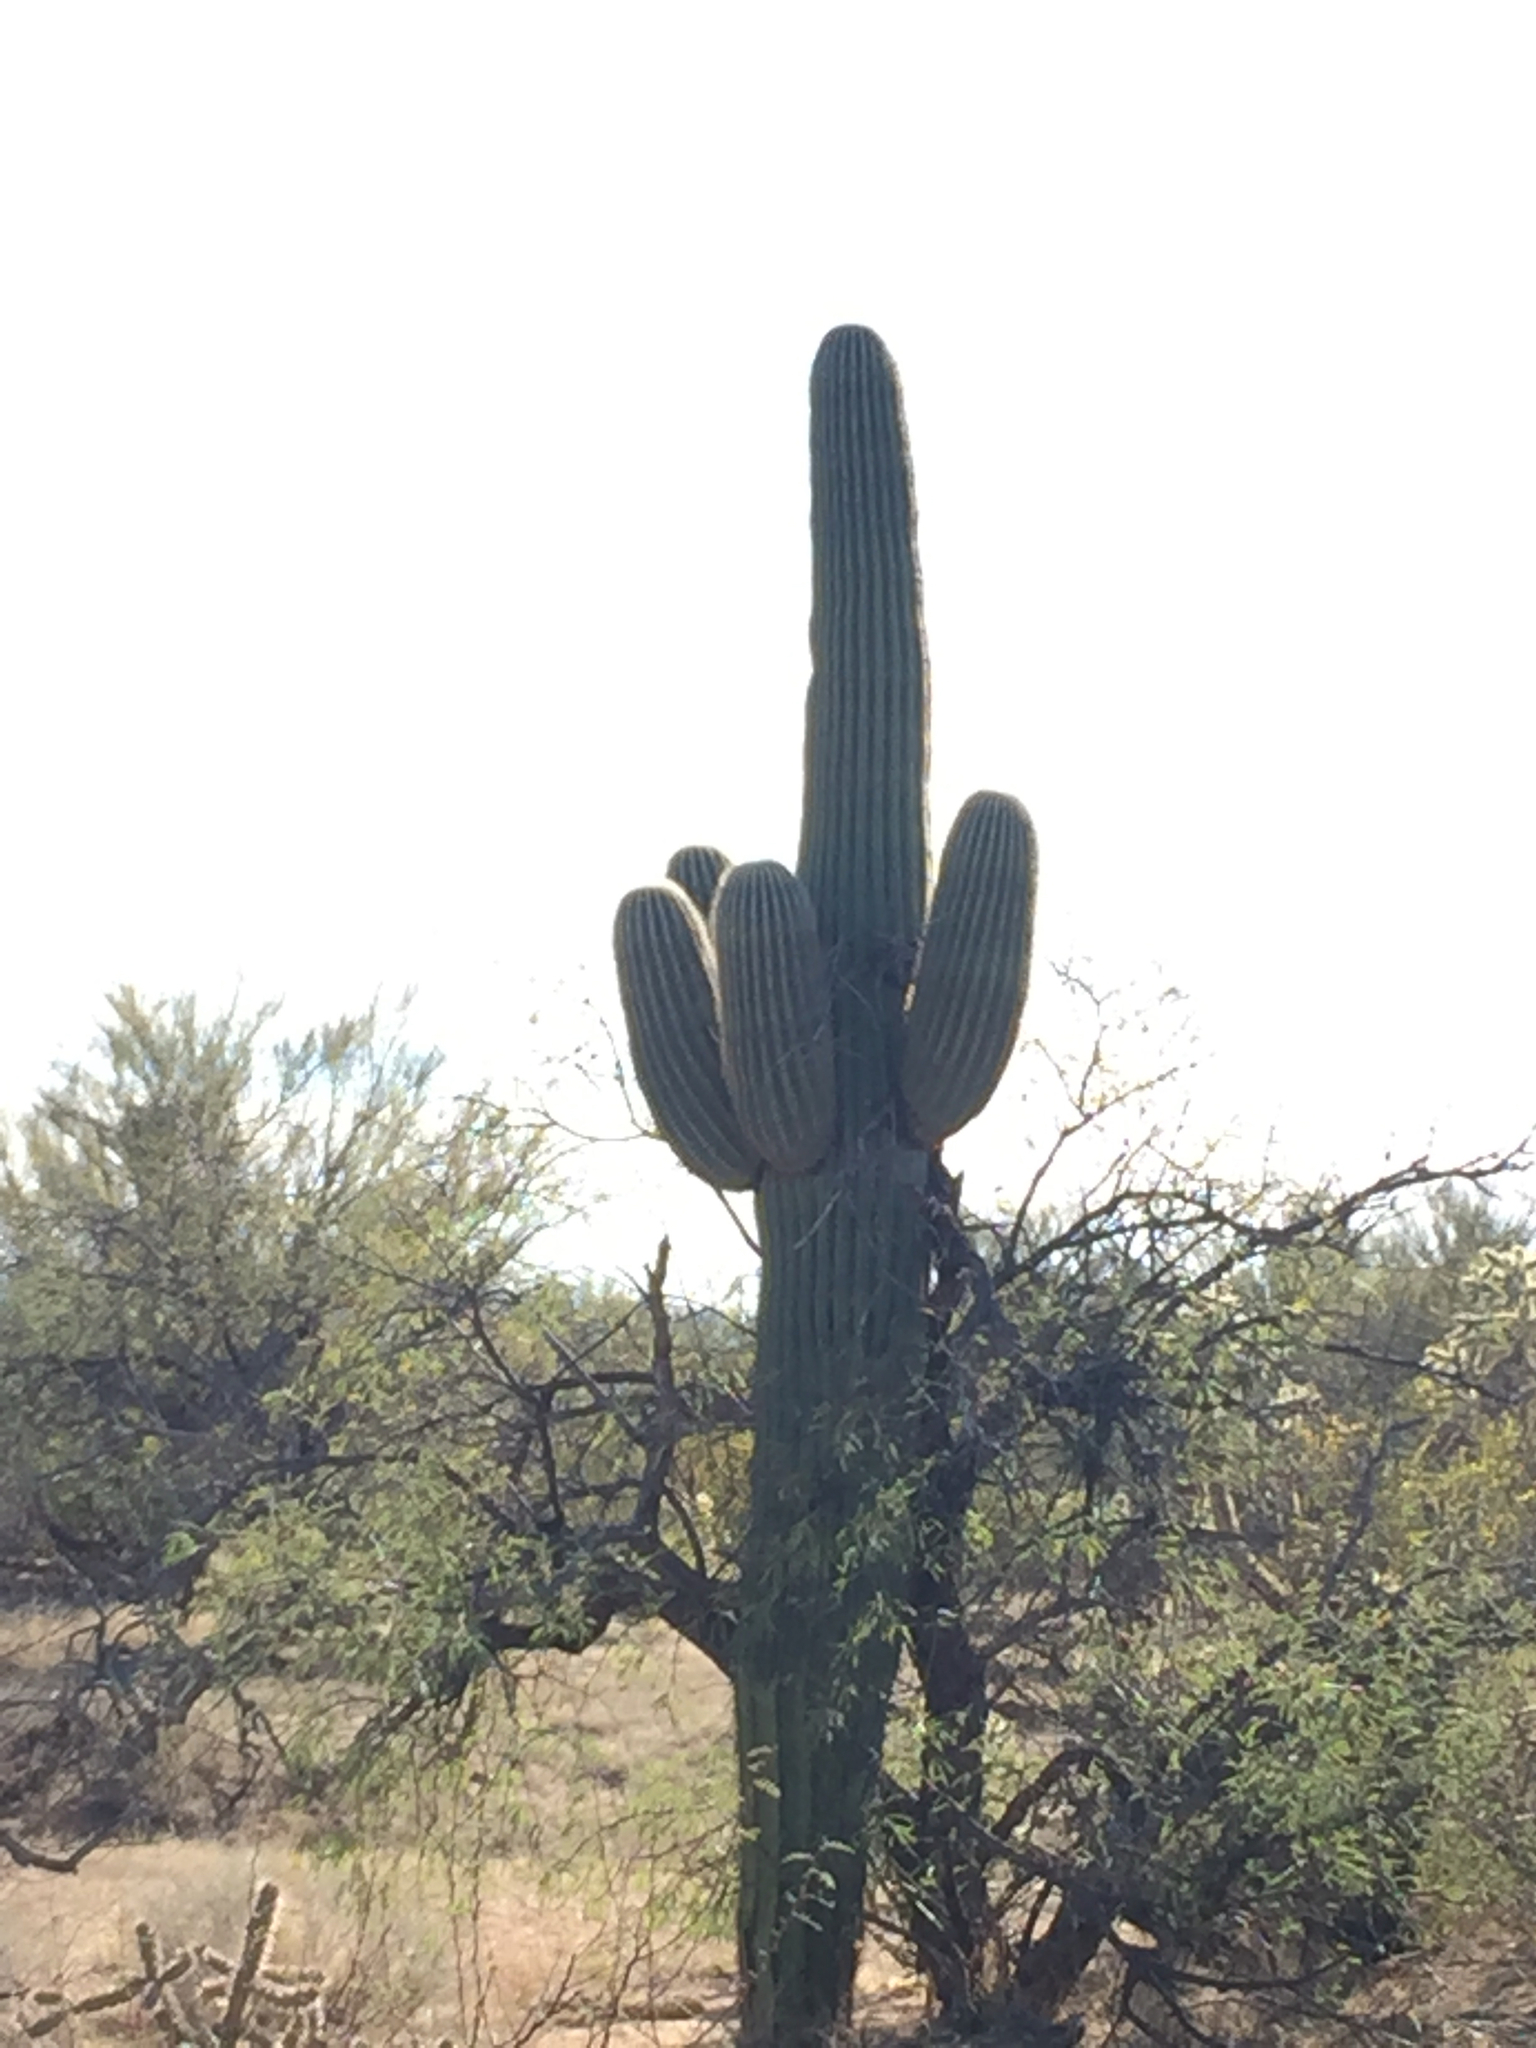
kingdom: Plantae
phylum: Tracheophyta
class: Magnoliopsida
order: Caryophyllales
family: Cactaceae
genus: Carnegiea
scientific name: Carnegiea gigantea
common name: Saguaro
